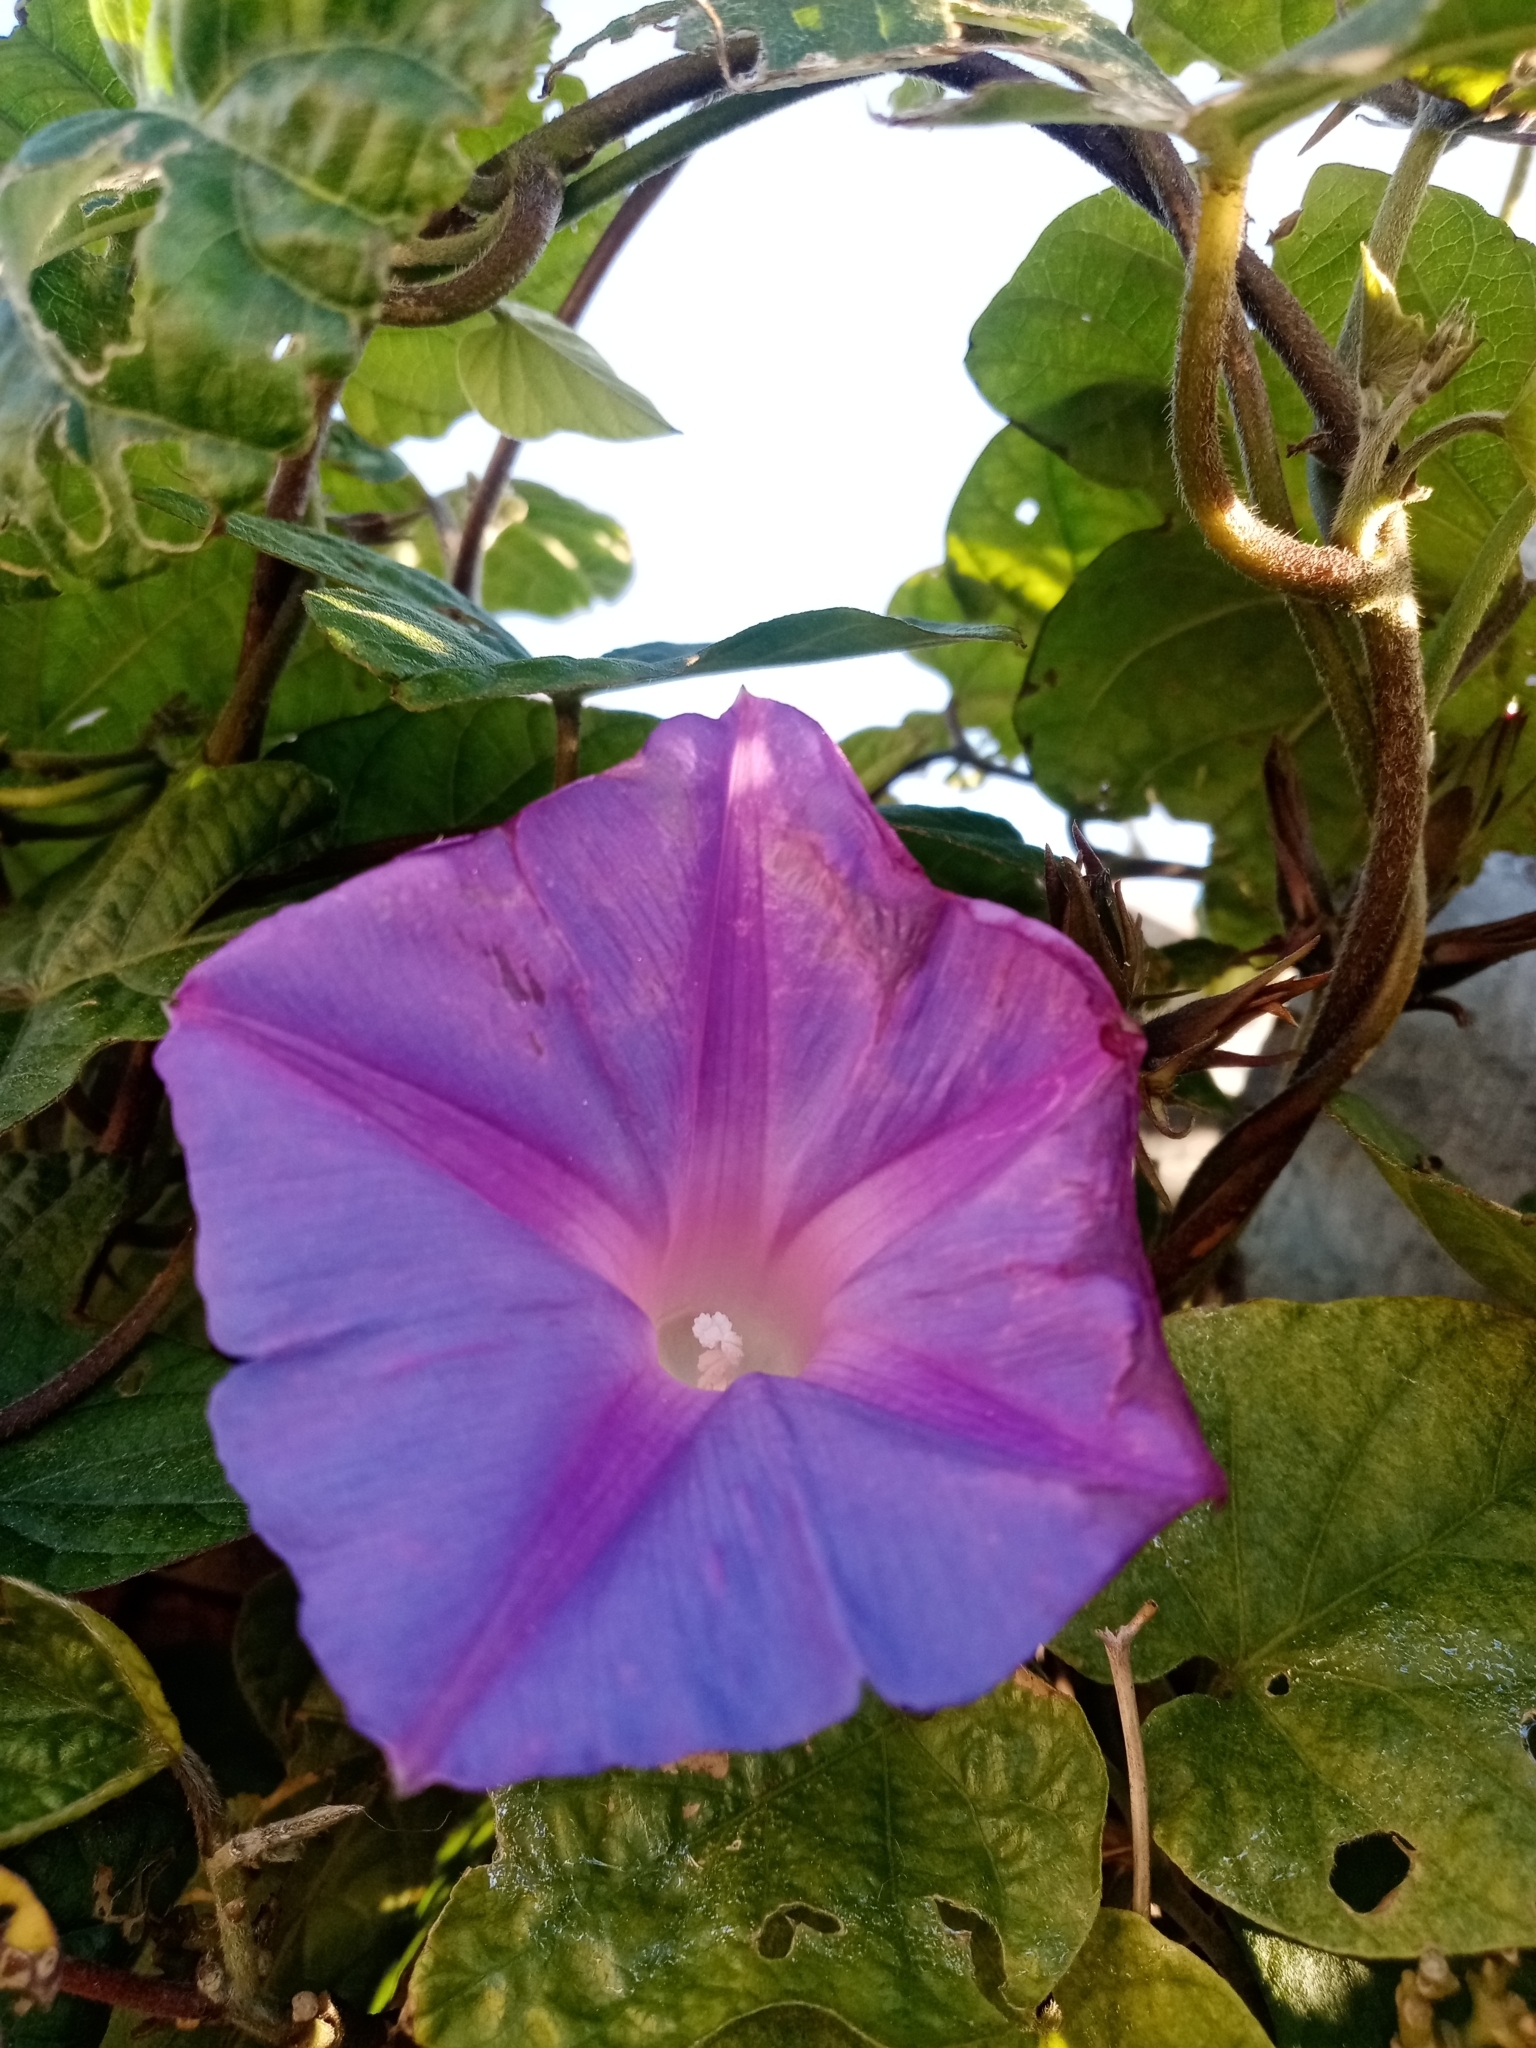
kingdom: Plantae
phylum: Tracheophyta
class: Magnoliopsida
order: Solanales
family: Convolvulaceae
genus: Ipomoea
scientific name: Ipomoea indica
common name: Blue dawnflower
